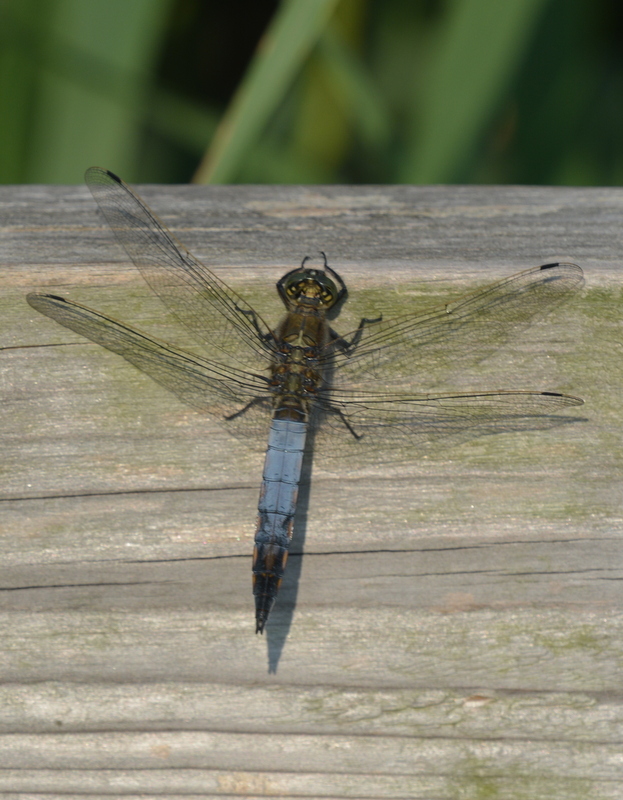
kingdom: Animalia
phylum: Arthropoda
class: Insecta
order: Odonata
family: Libellulidae
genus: Orthetrum
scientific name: Orthetrum cancellatum
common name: Black-tailed skimmer
